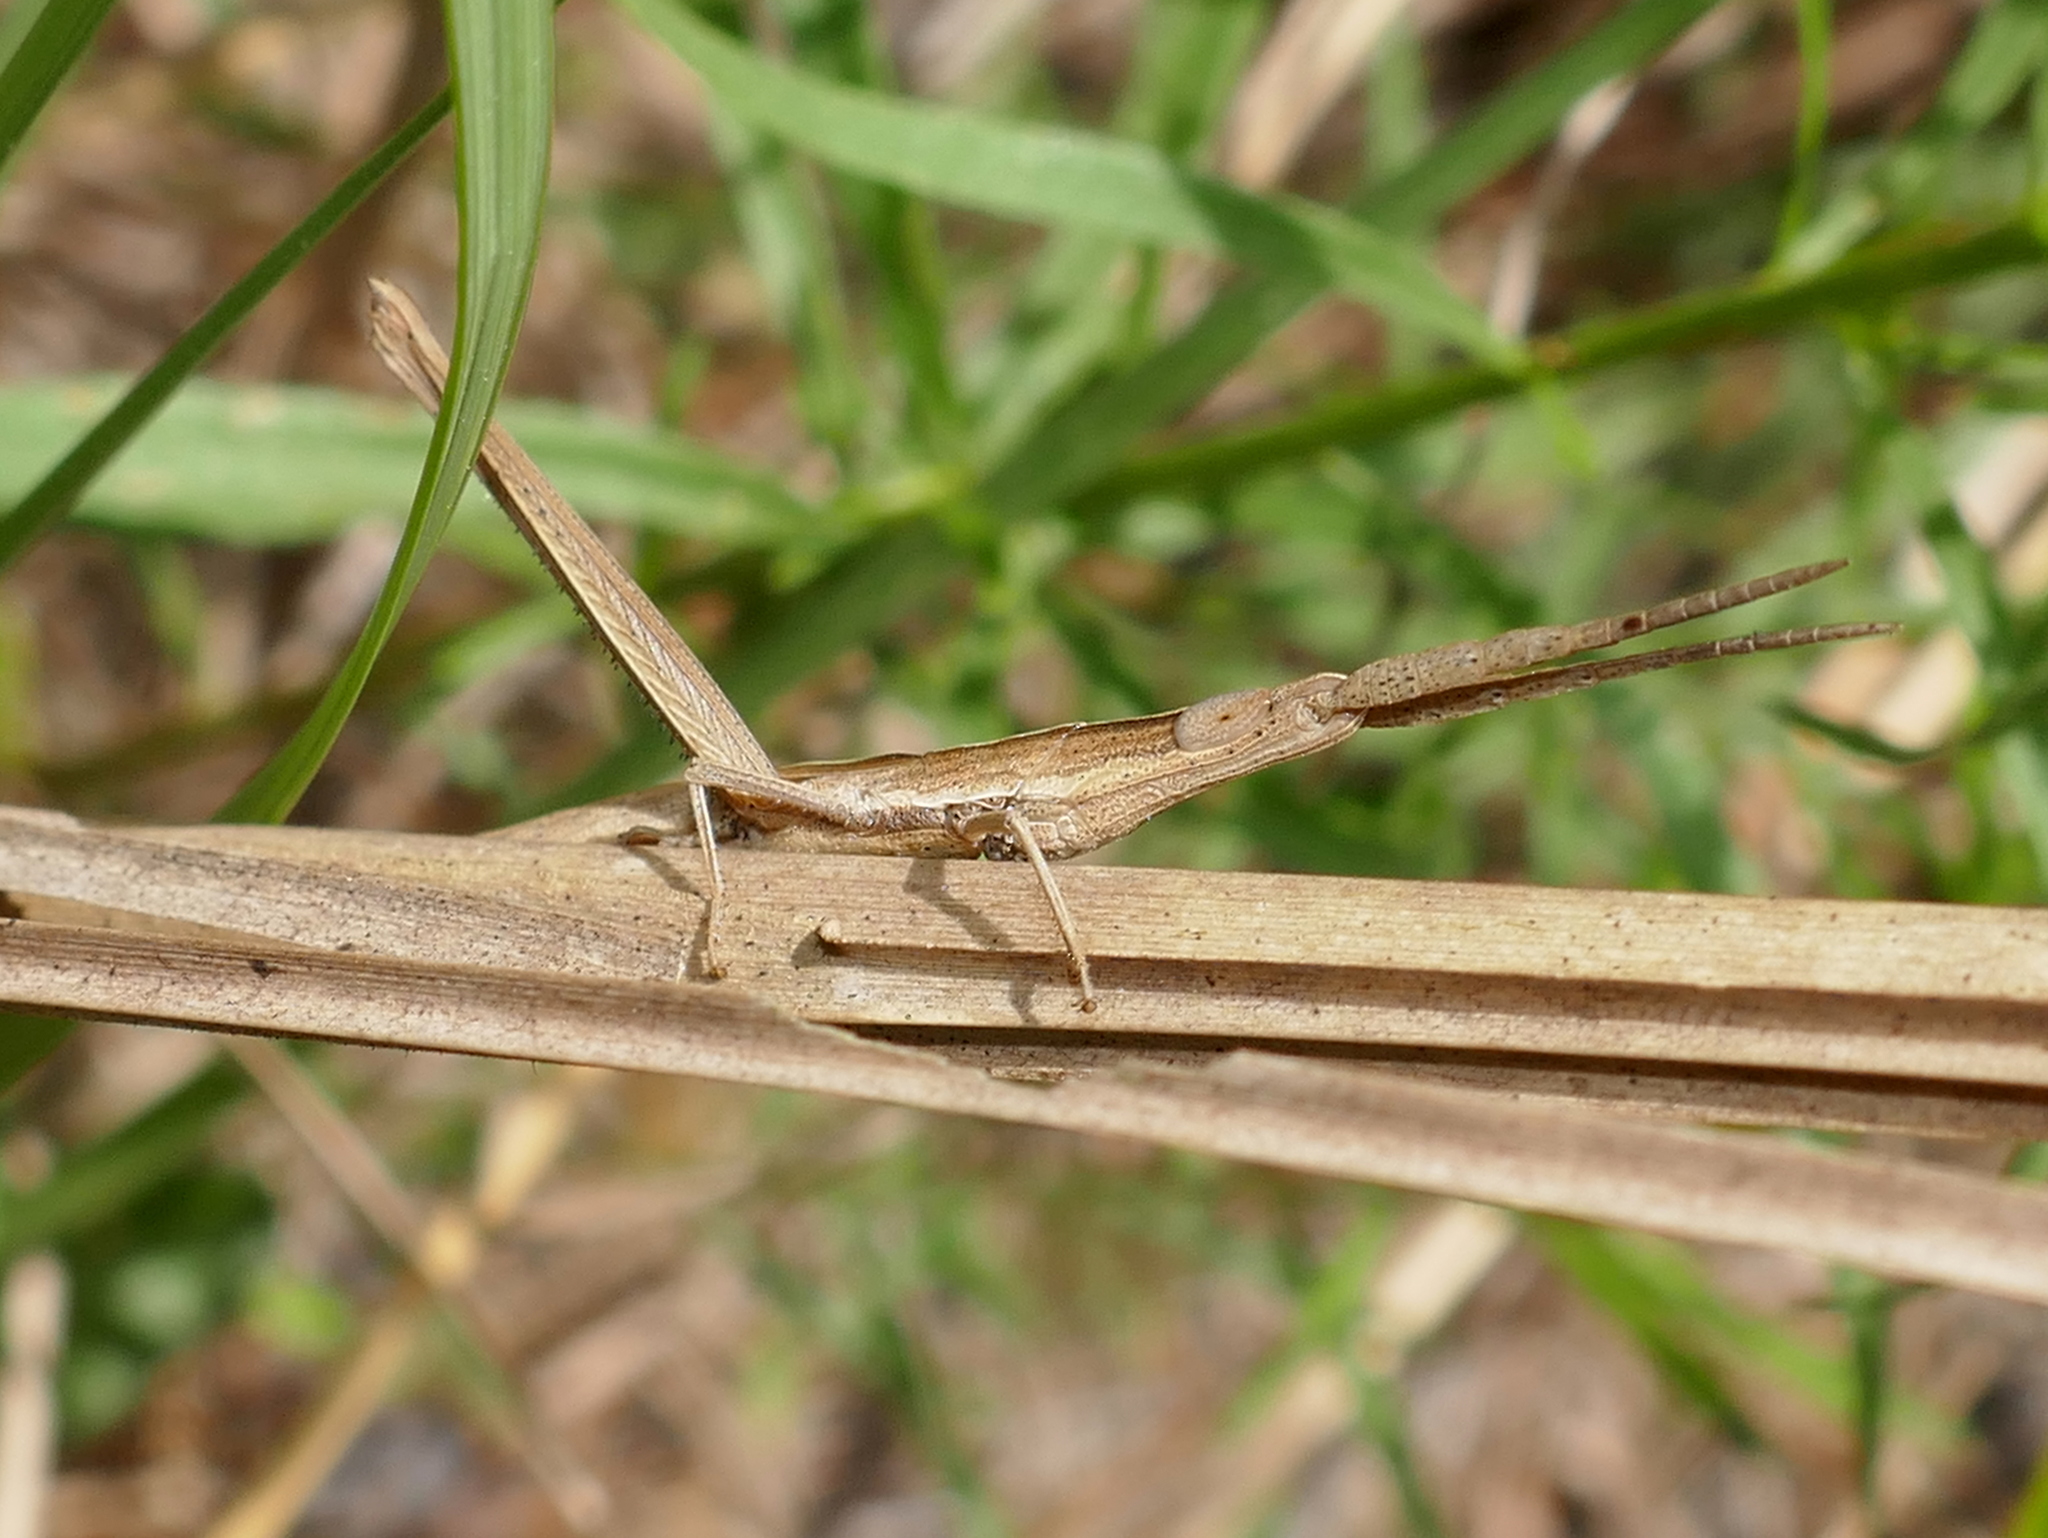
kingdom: Animalia
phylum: Arthropoda
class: Insecta
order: Orthoptera
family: Acrididae
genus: Achurum
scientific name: Achurum carinatum
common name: Long-headed toothpick grasshopper
